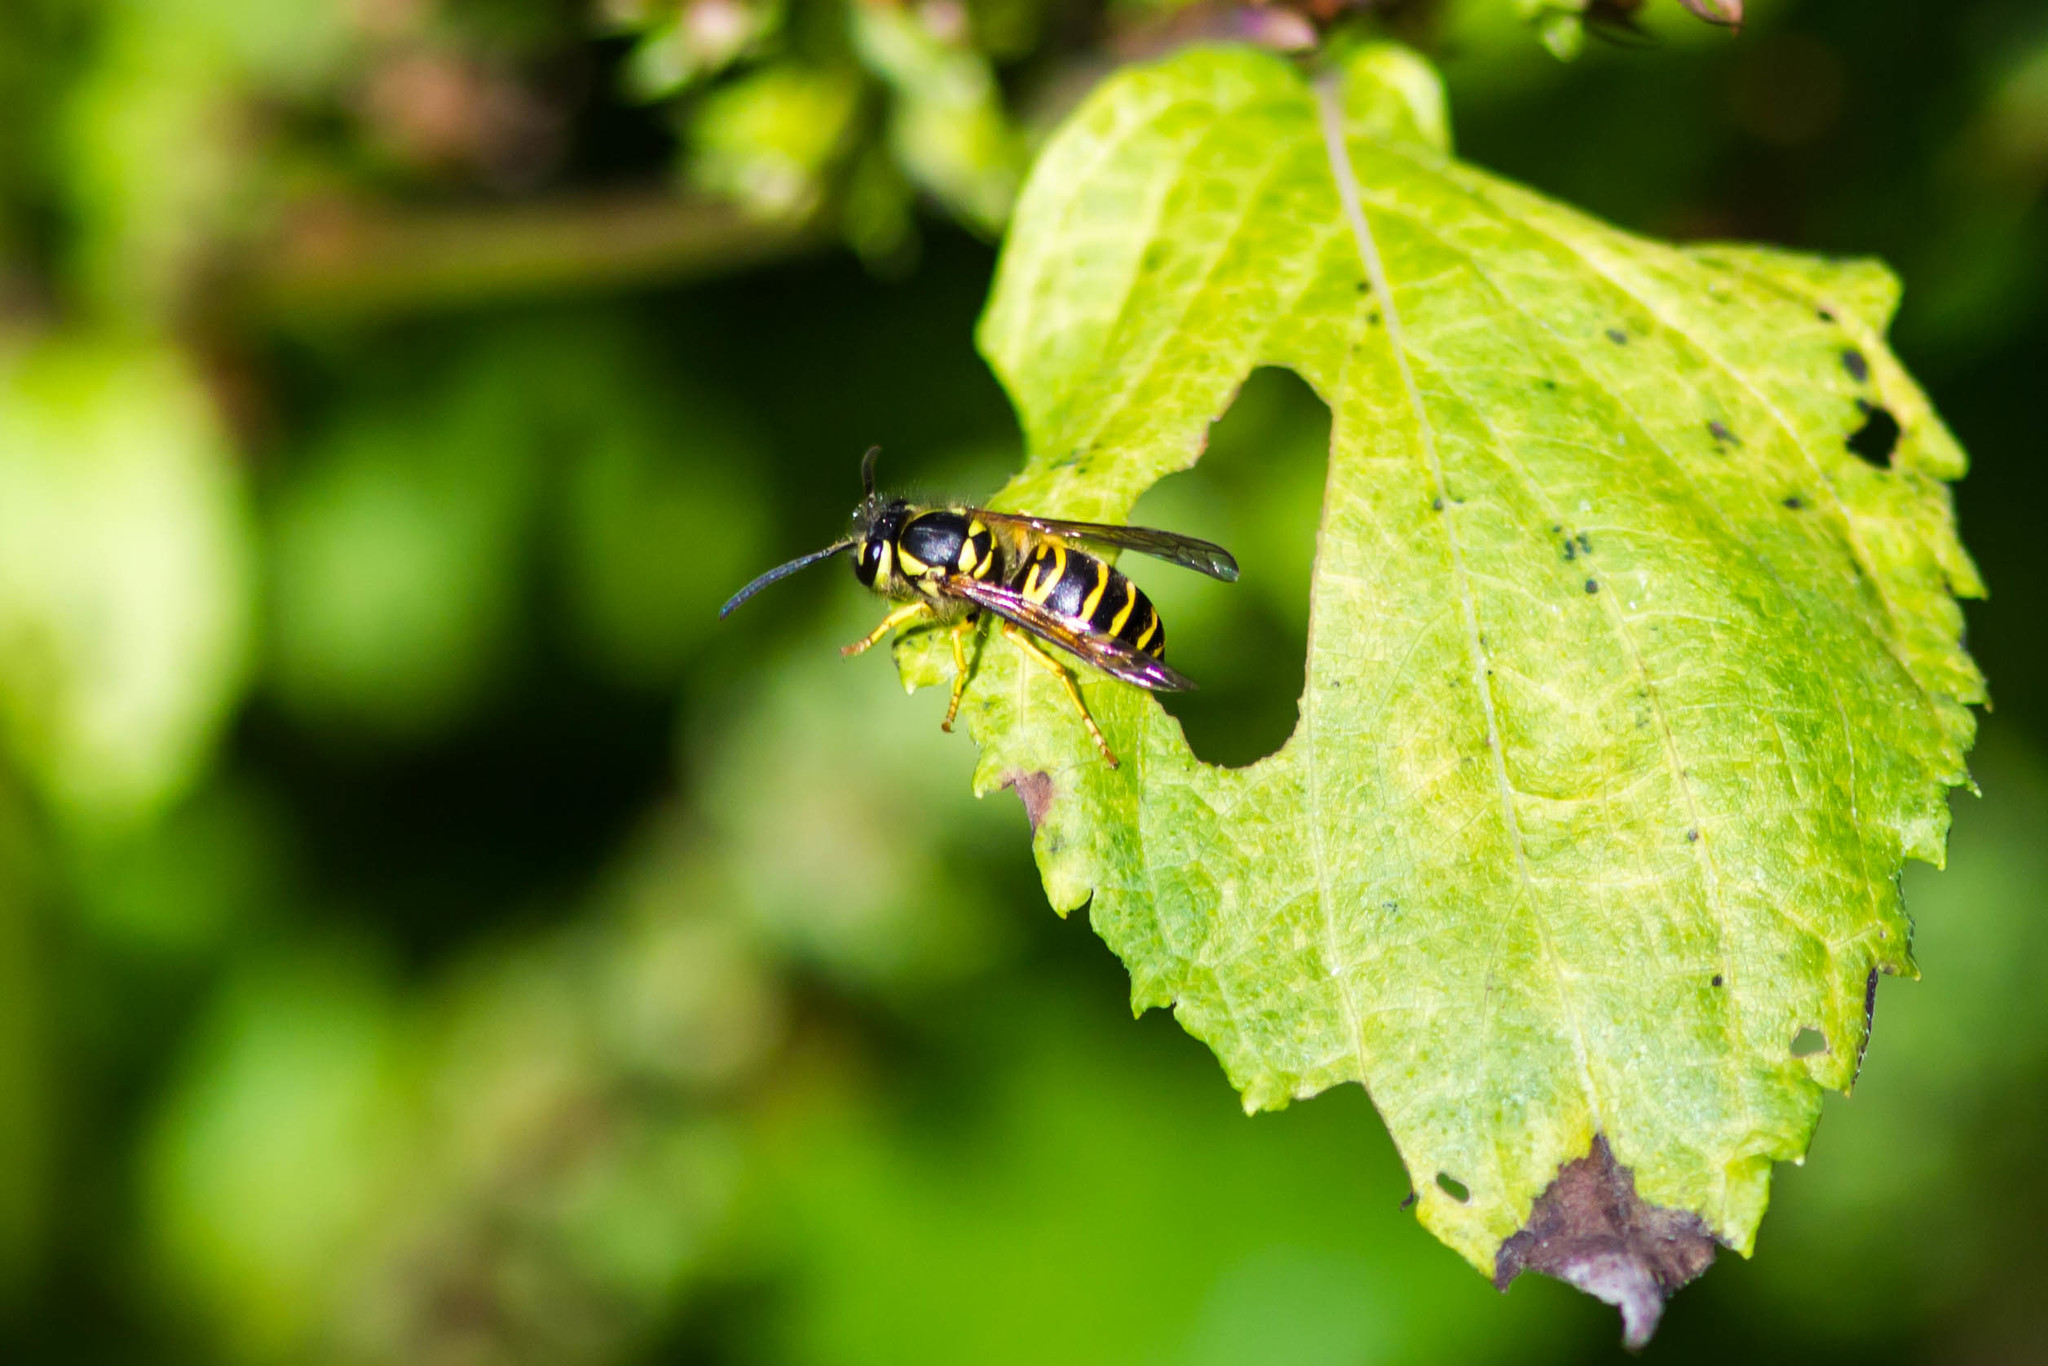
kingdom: Animalia
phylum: Arthropoda
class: Insecta
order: Hymenoptera
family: Vespidae
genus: Vespula
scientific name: Vespula maculifrons
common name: Eastern yellowjacket
